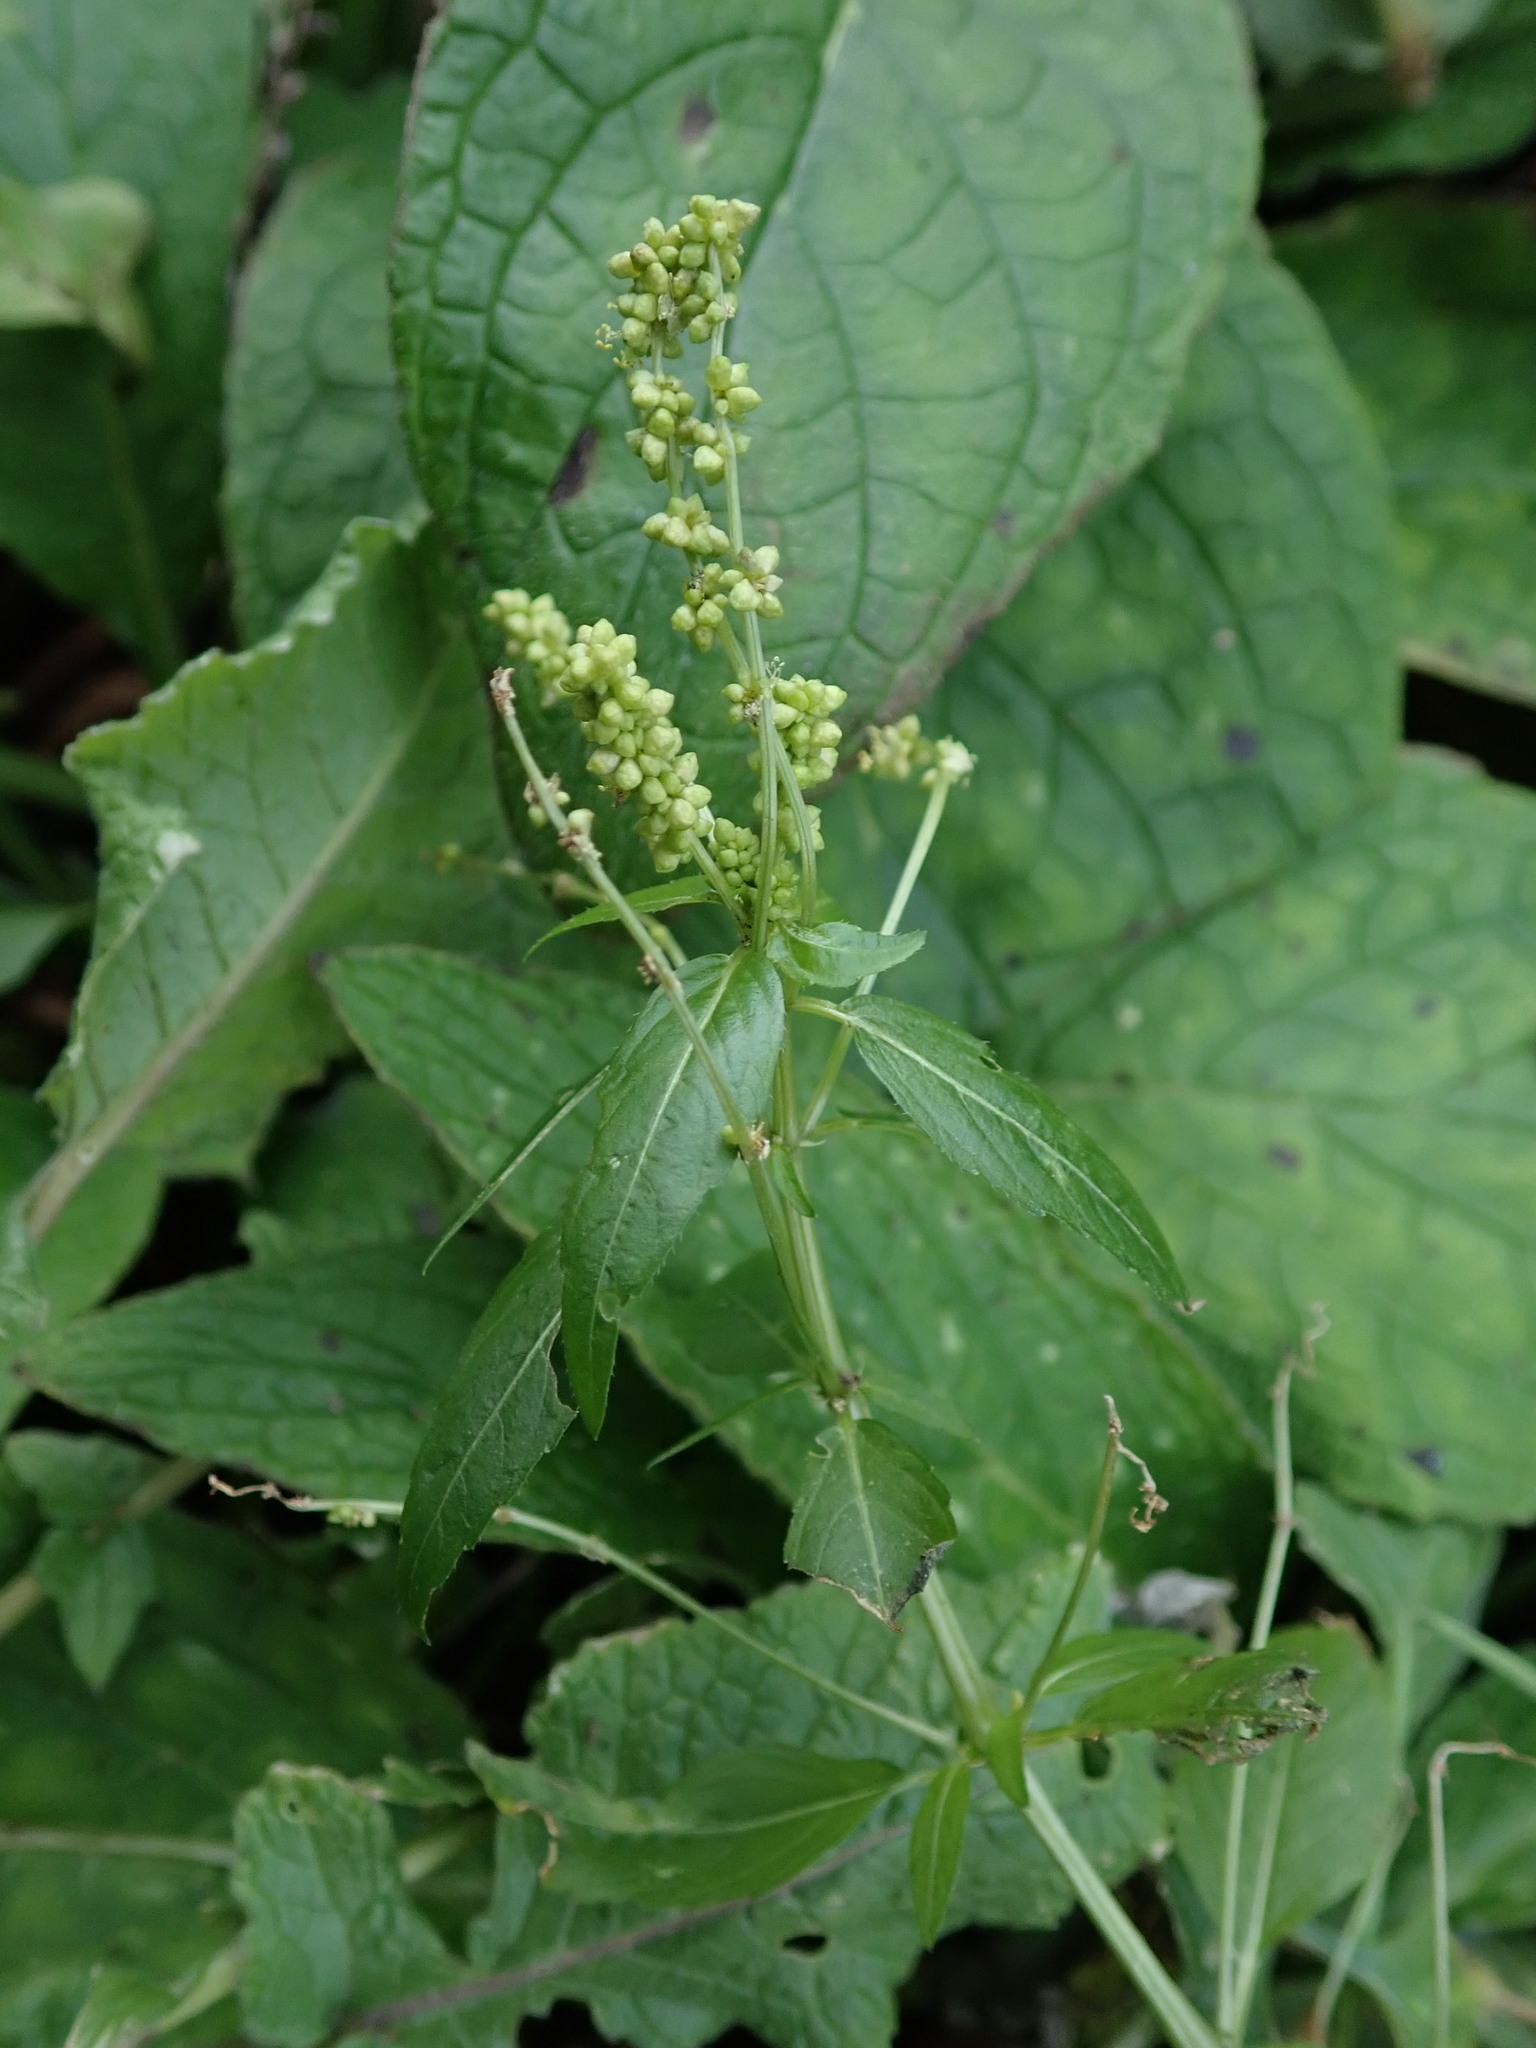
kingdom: Plantae
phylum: Tracheophyta
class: Magnoliopsida
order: Malpighiales
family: Euphorbiaceae
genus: Mercurialis
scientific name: Mercurialis annua
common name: Annual mercury
